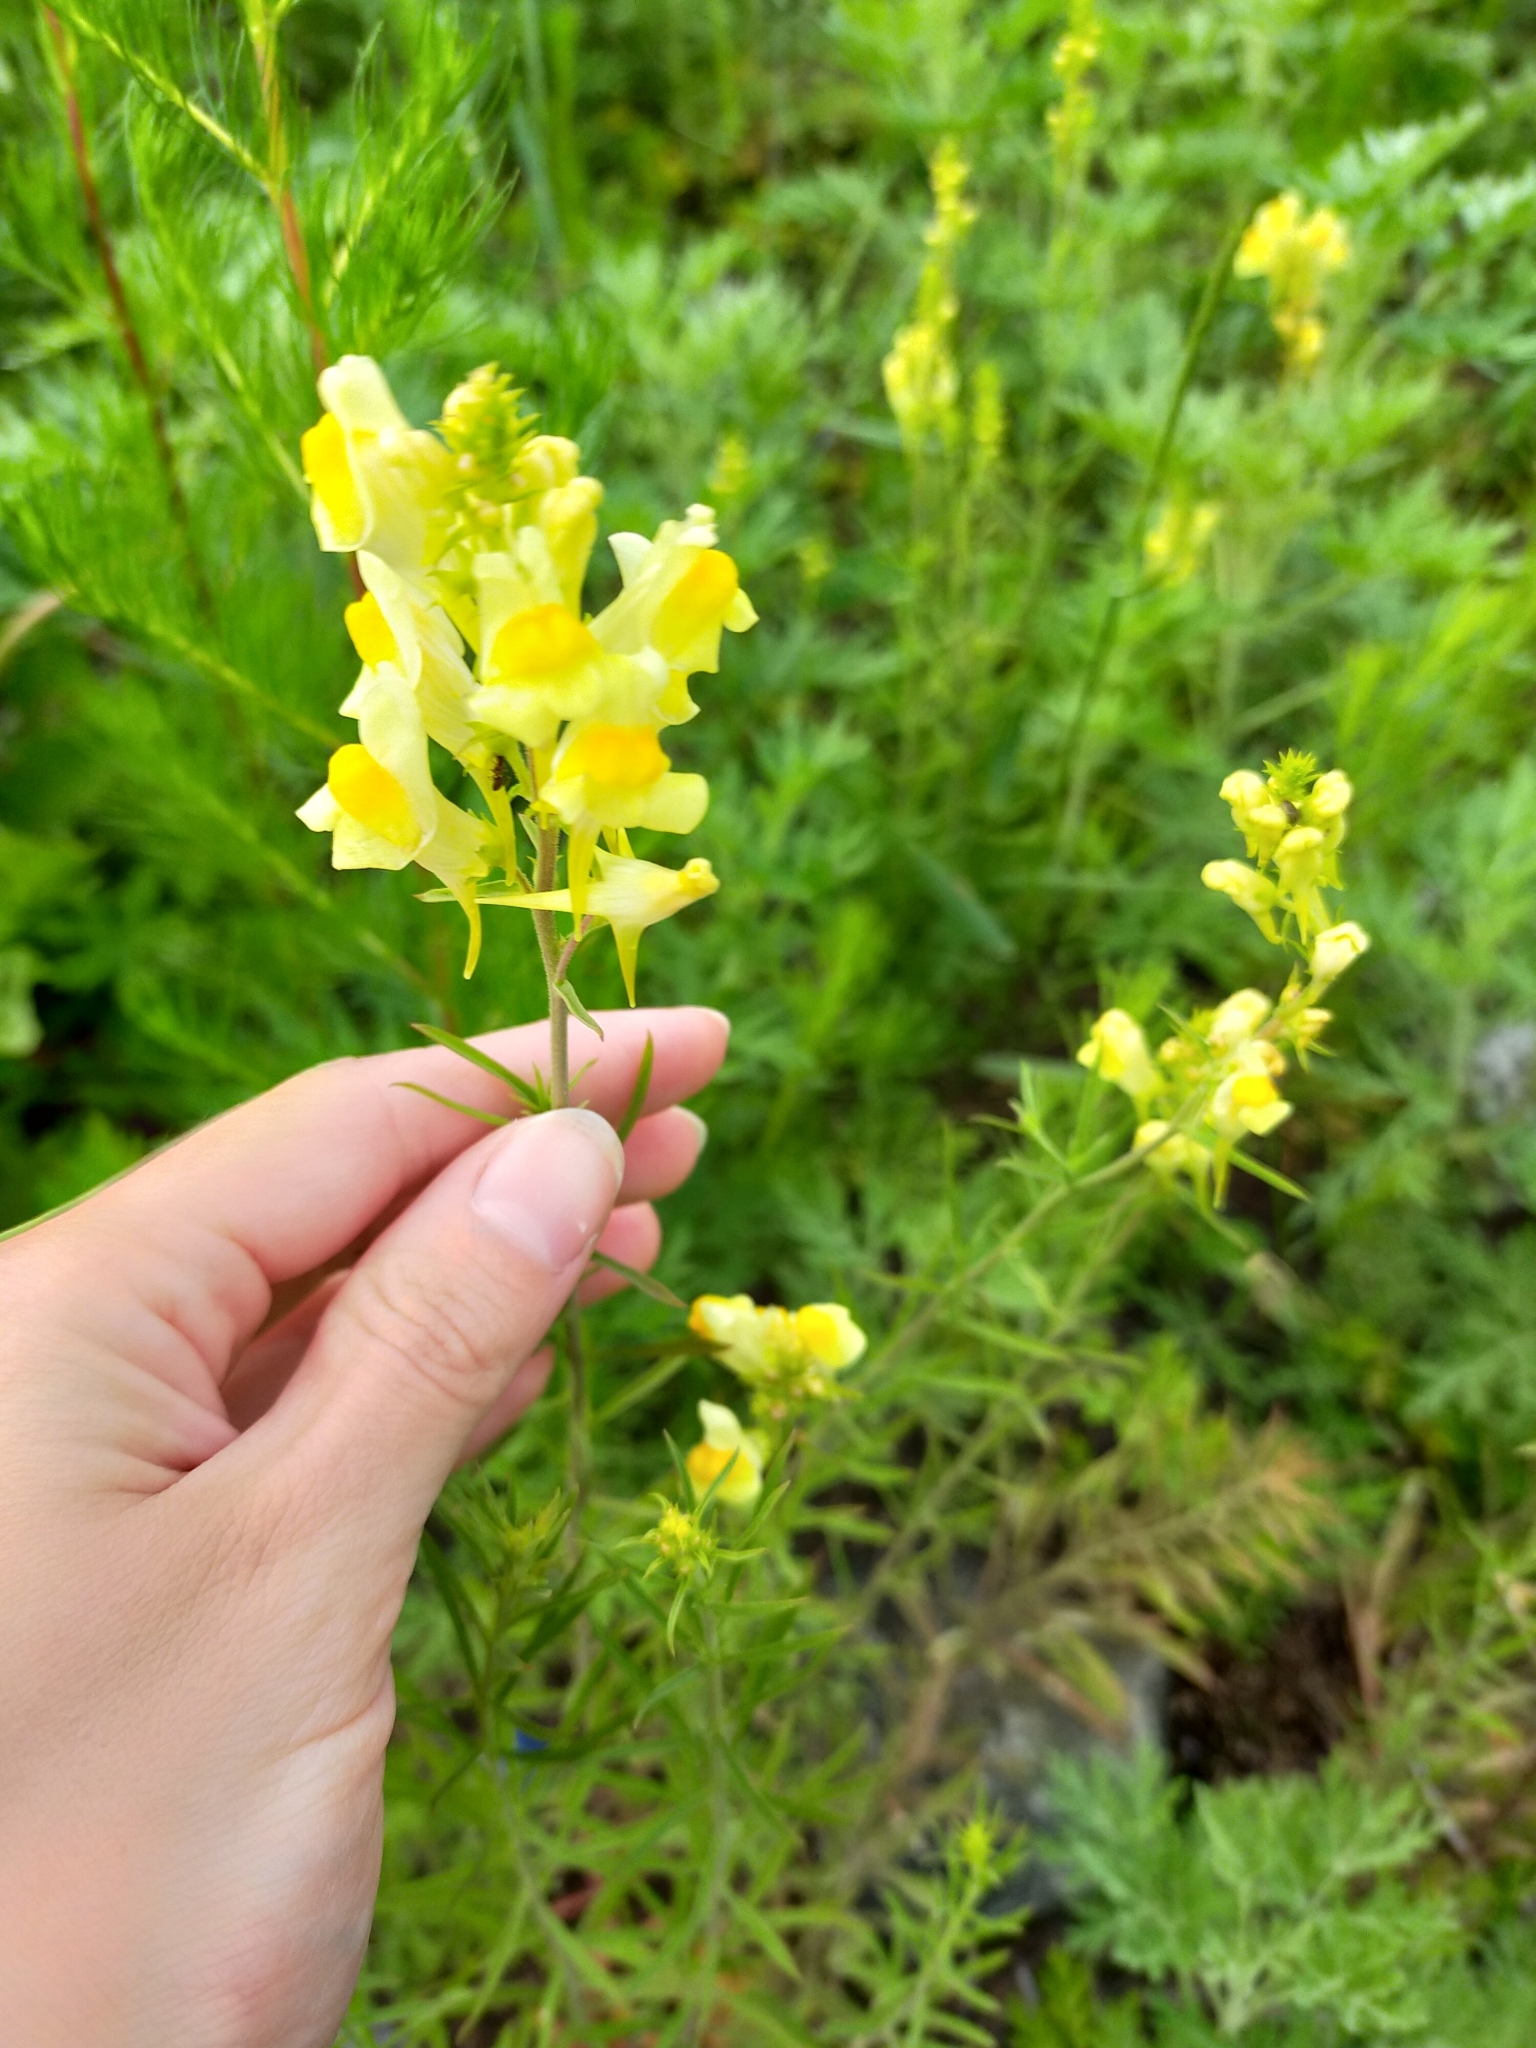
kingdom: Plantae
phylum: Tracheophyta
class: Magnoliopsida
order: Lamiales
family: Plantaginaceae
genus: Linaria
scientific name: Linaria vulgaris
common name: Butter and eggs
